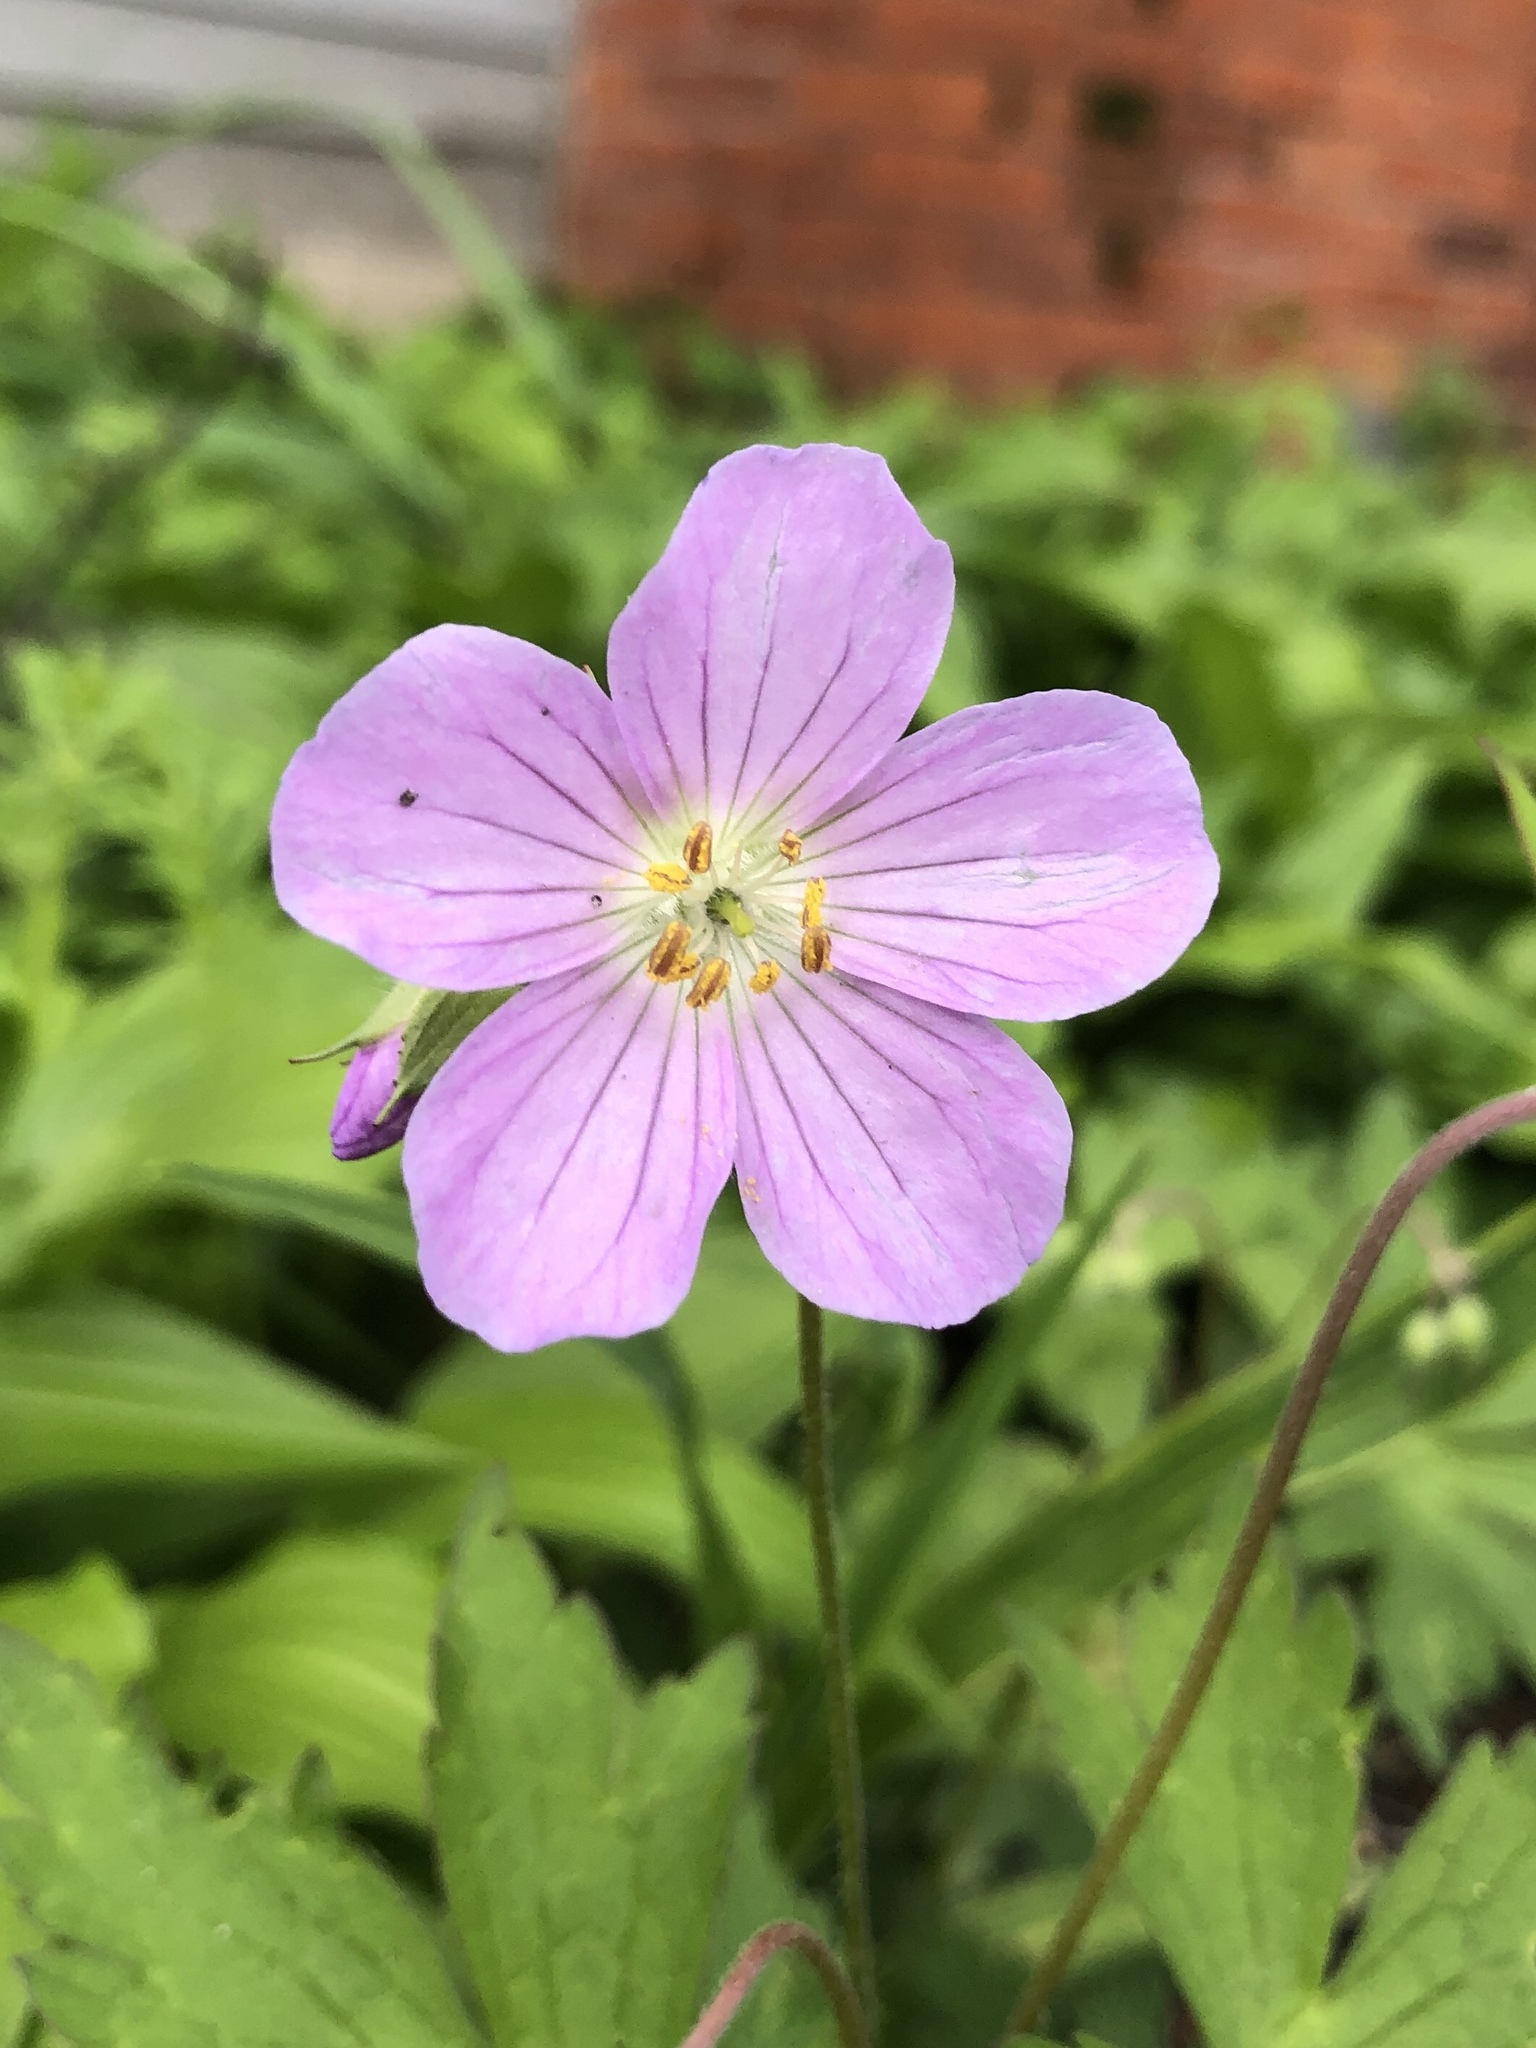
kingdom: Plantae
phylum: Tracheophyta
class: Magnoliopsida
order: Geraniales
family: Geraniaceae
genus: Geranium
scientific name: Geranium maculatum
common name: Spotted geranium
